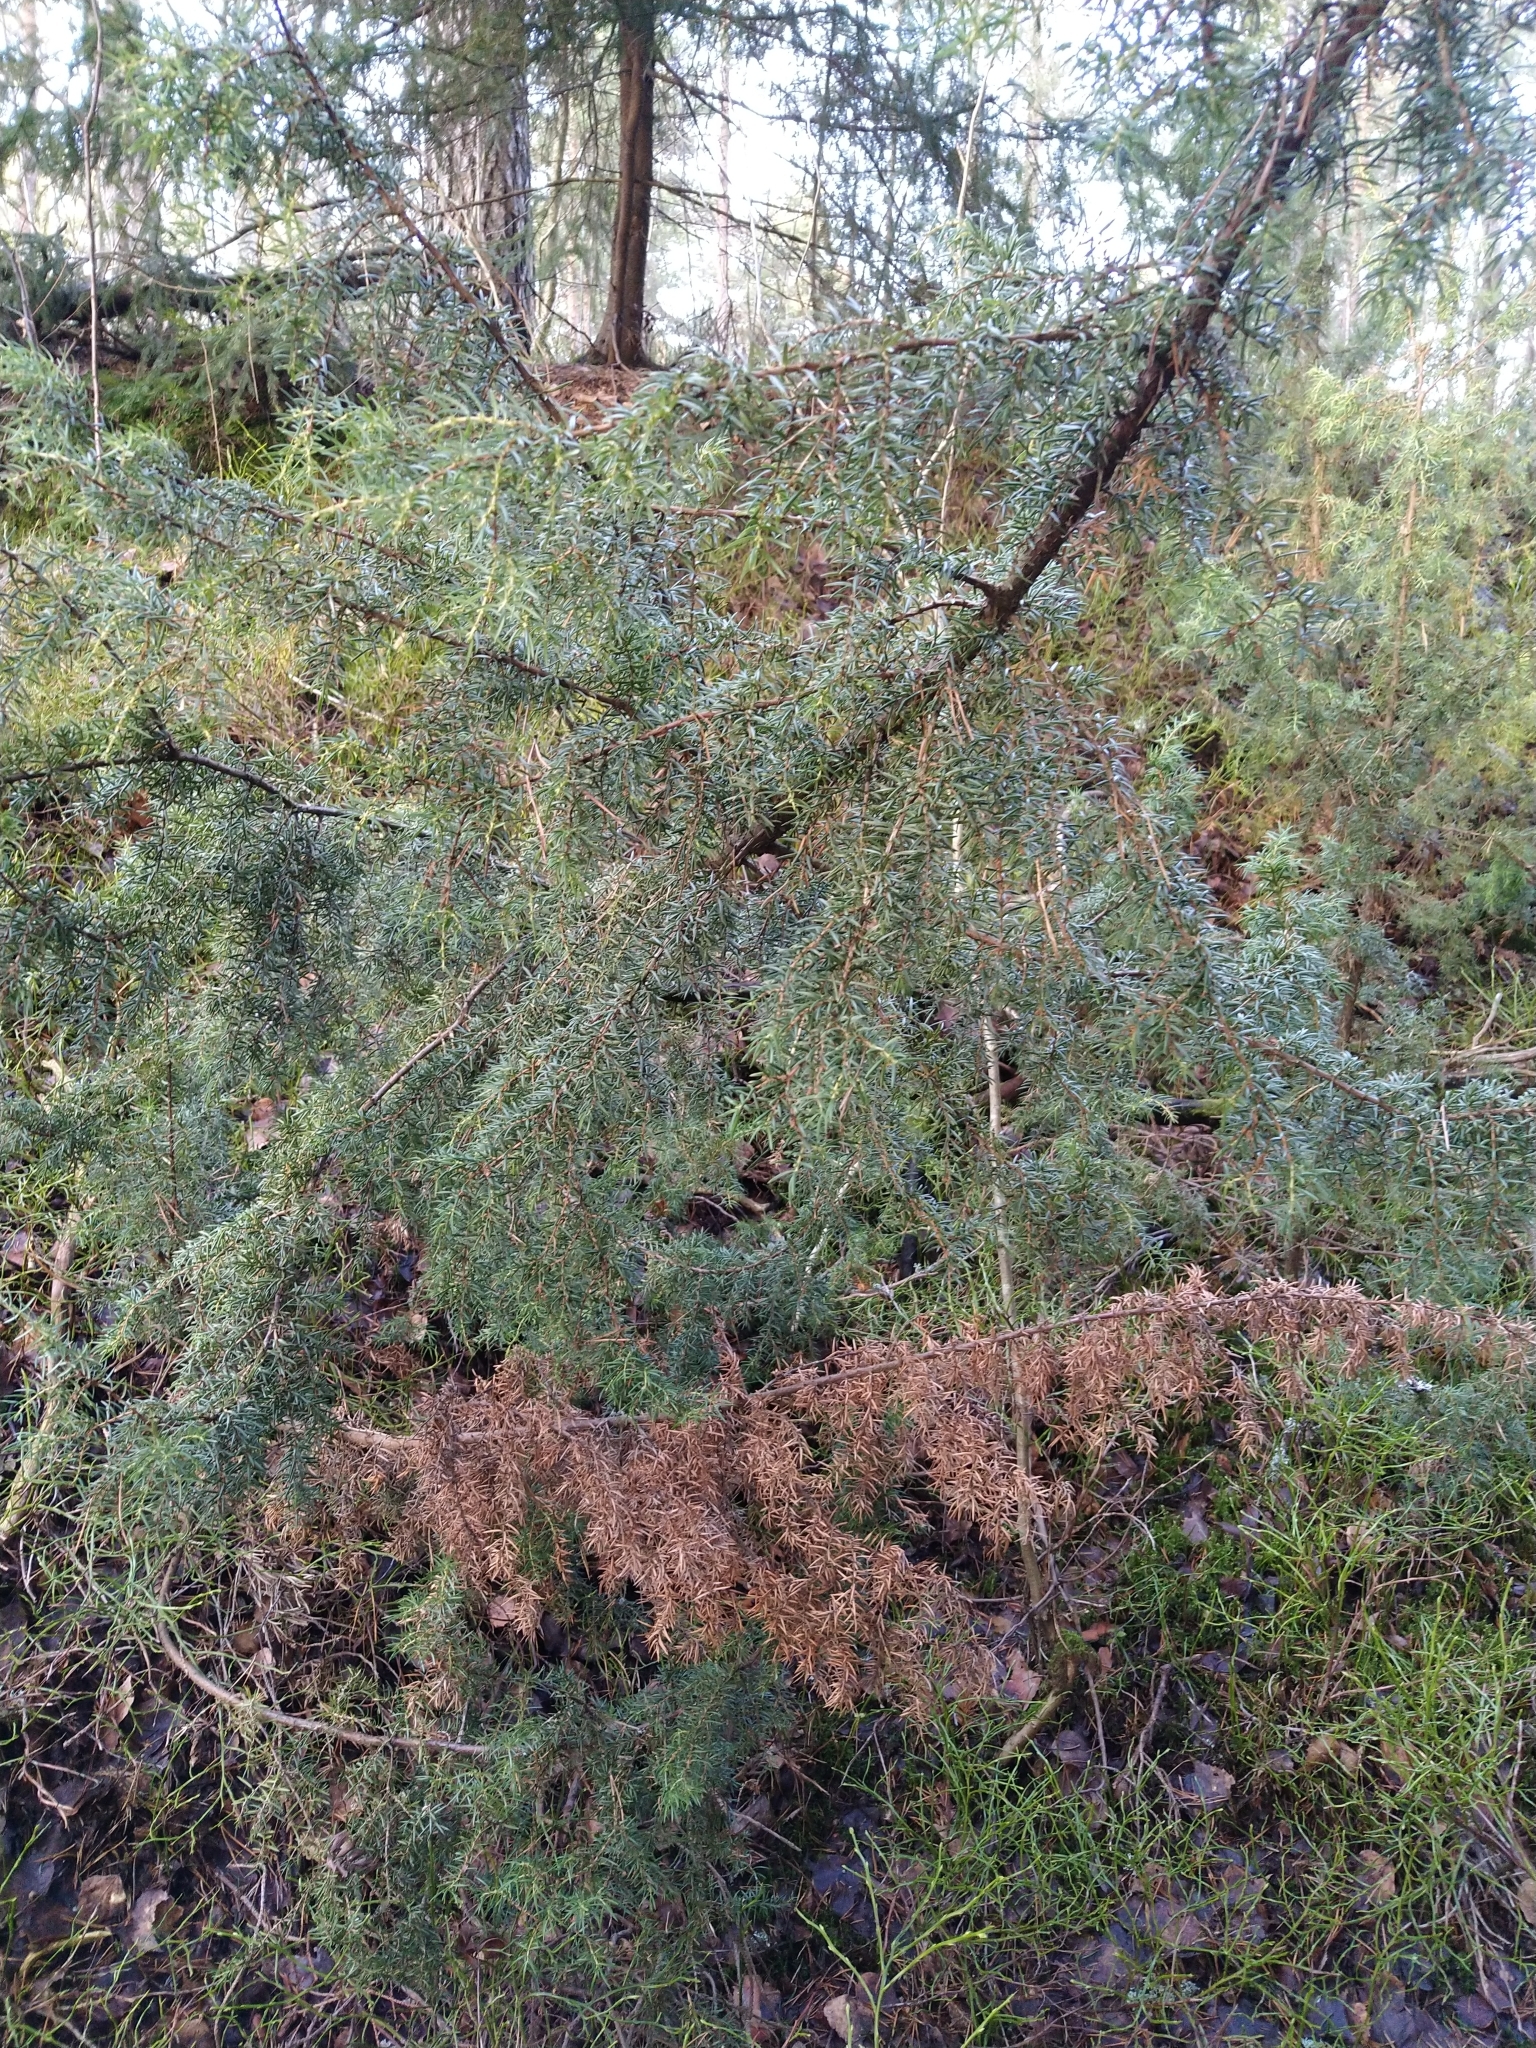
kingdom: Plantae
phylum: Tracheophyta
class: Pinopsida
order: Pinales
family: Cupressaceae
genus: Juniperus
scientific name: Juniperus communis
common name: Common juniper
